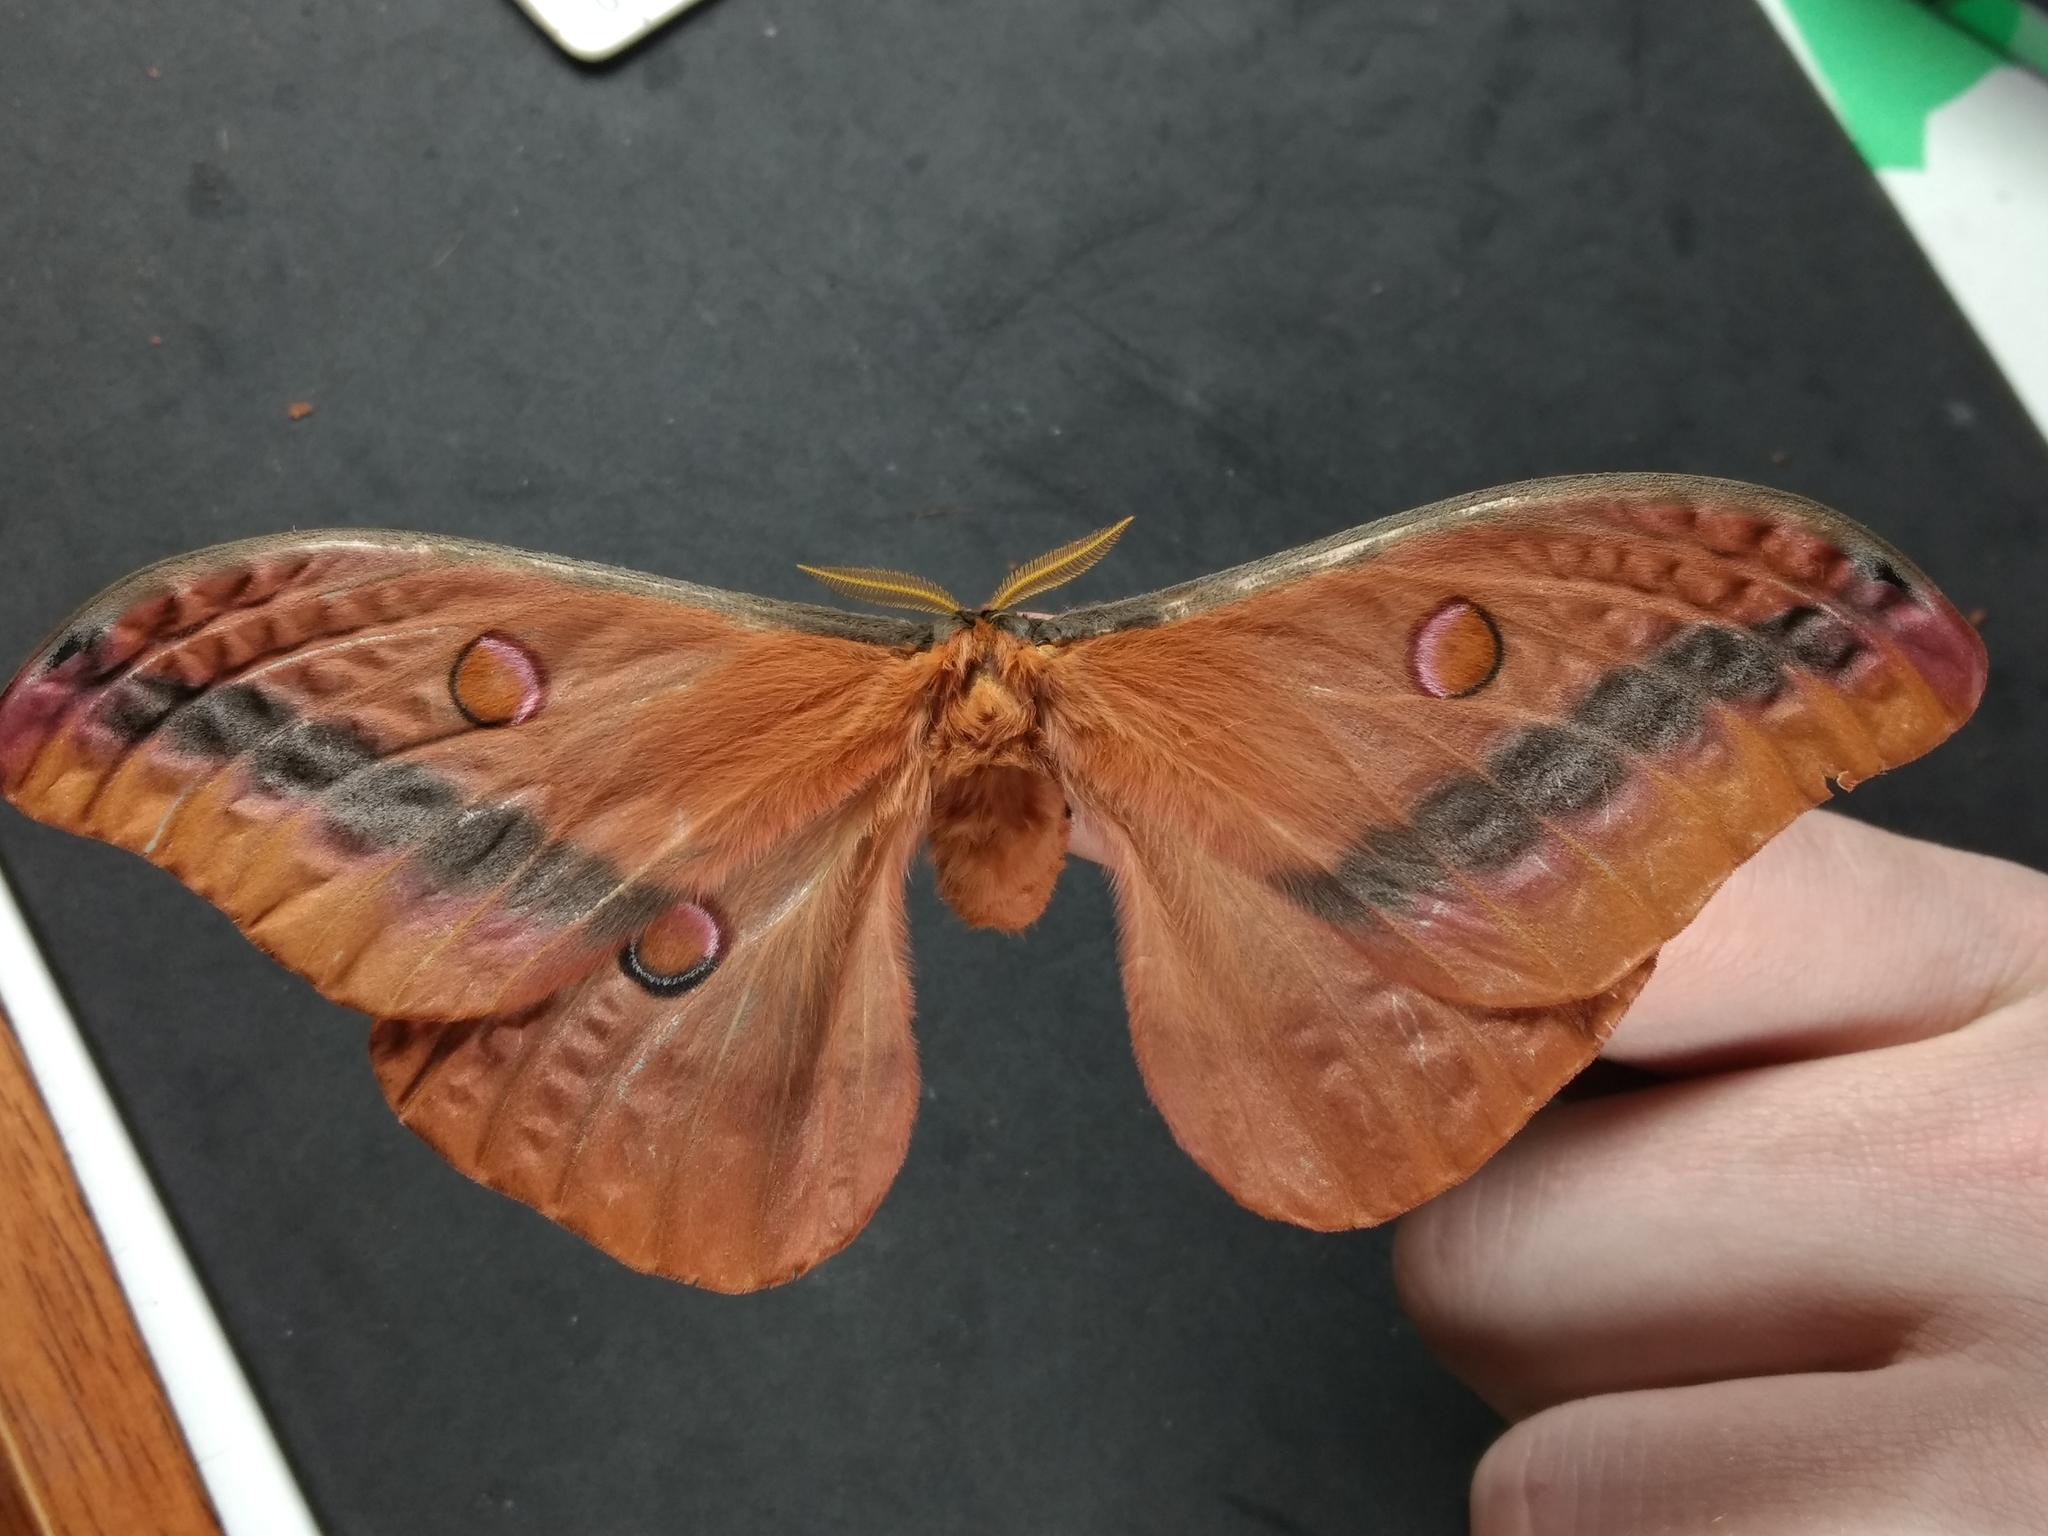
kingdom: Animalia
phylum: Arthropoda
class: Insecta
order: Lepidoptera
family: Saturniidae
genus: Opodiphthera
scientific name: Opodiphthera
